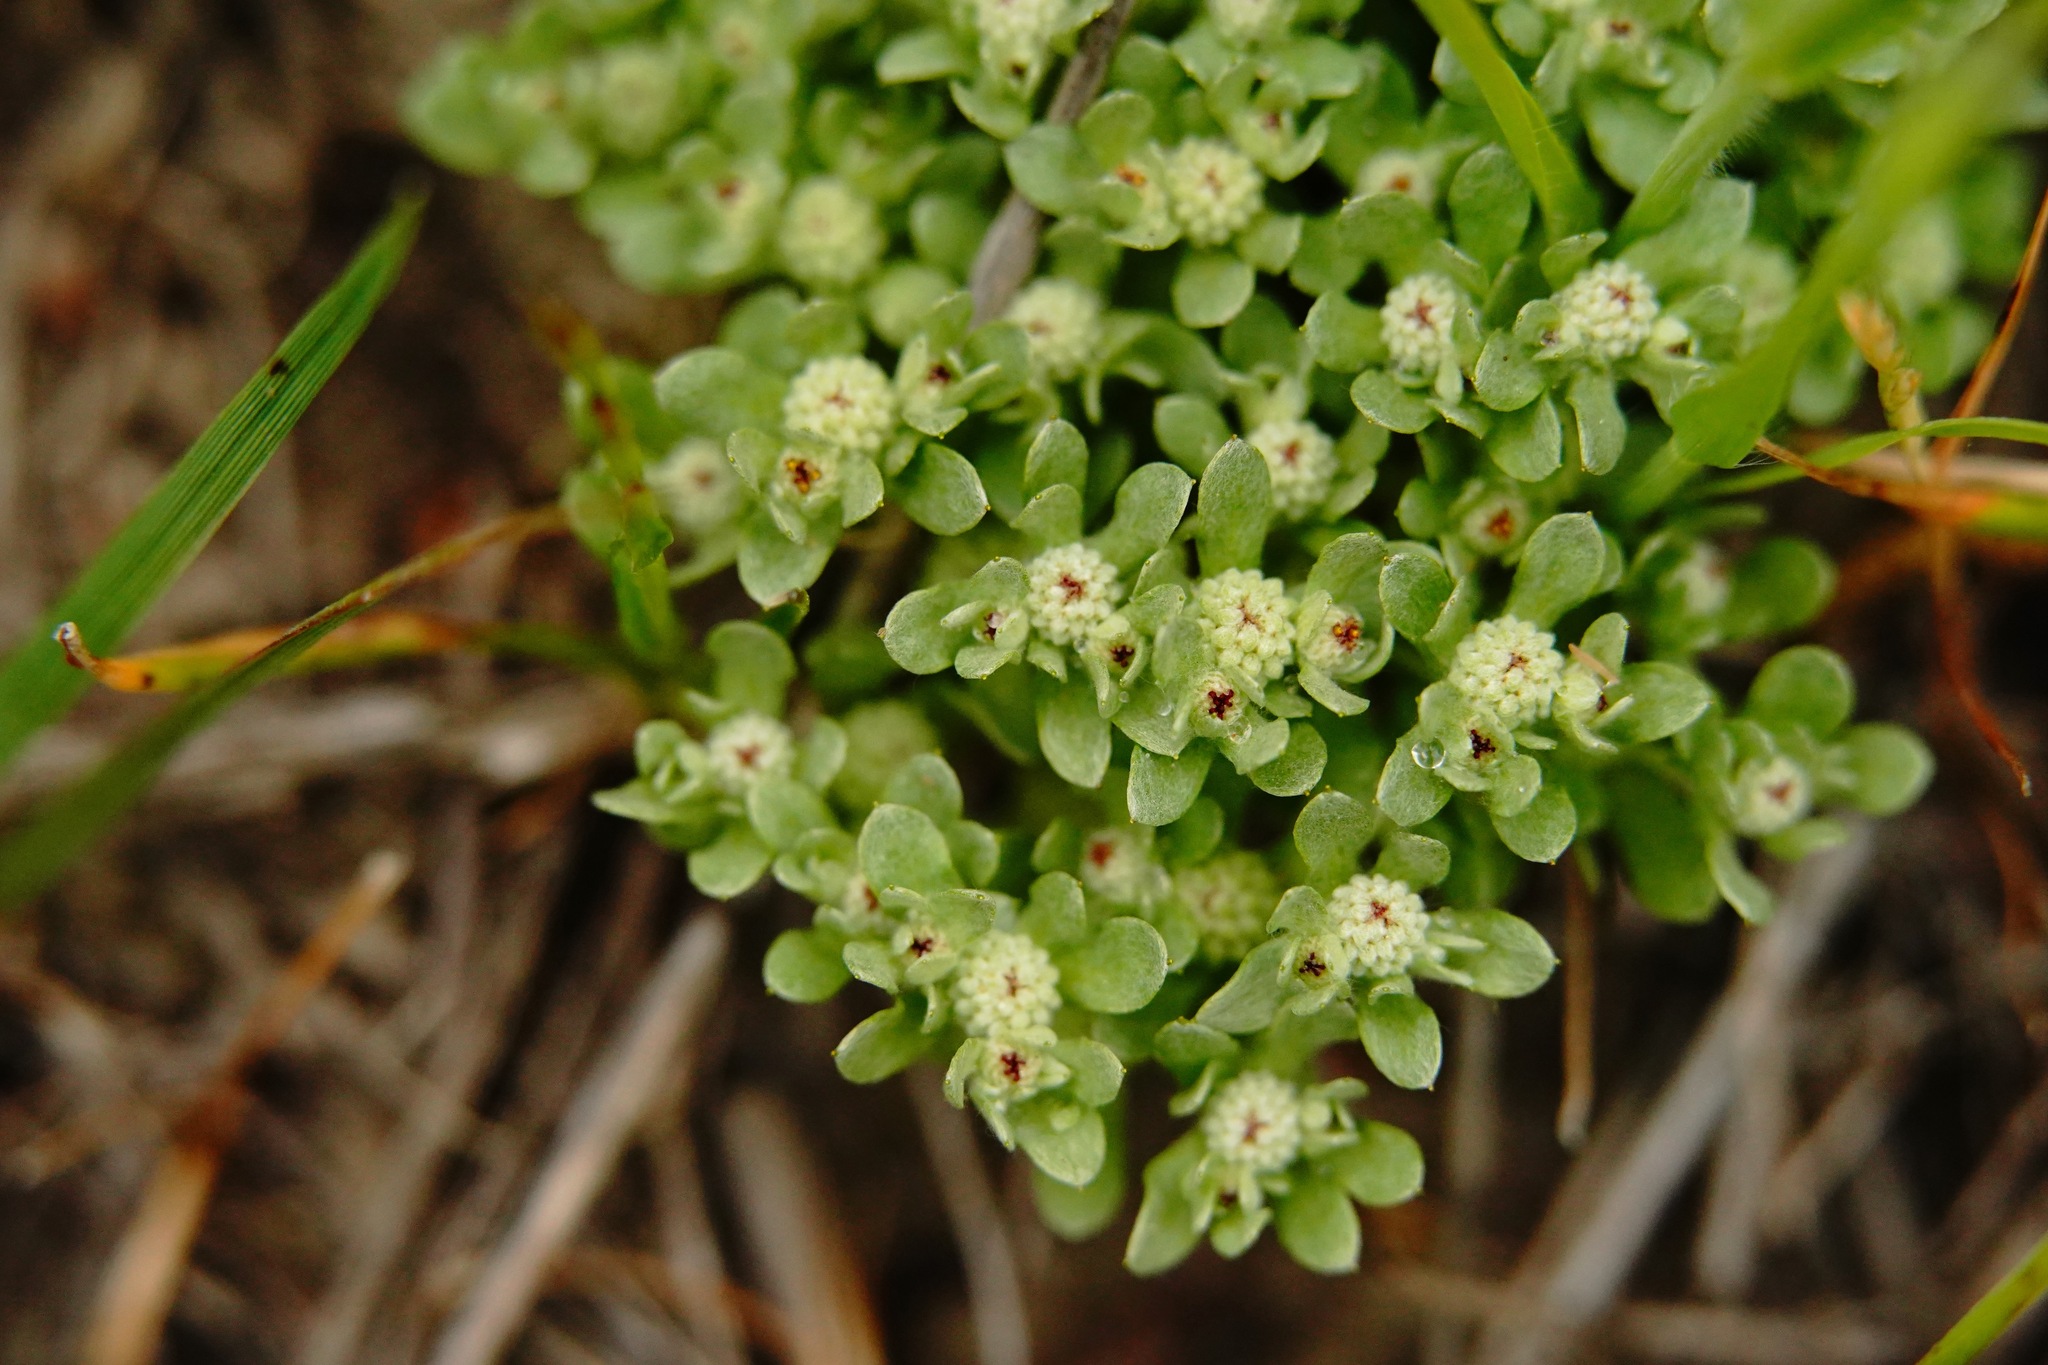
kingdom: Plantae
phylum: Tracheophyta
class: Magnoliopsida
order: Asterales
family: Asteraceae
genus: Psilocarphus
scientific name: Psilocarphus tenellus
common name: Slender woolly-marbles
